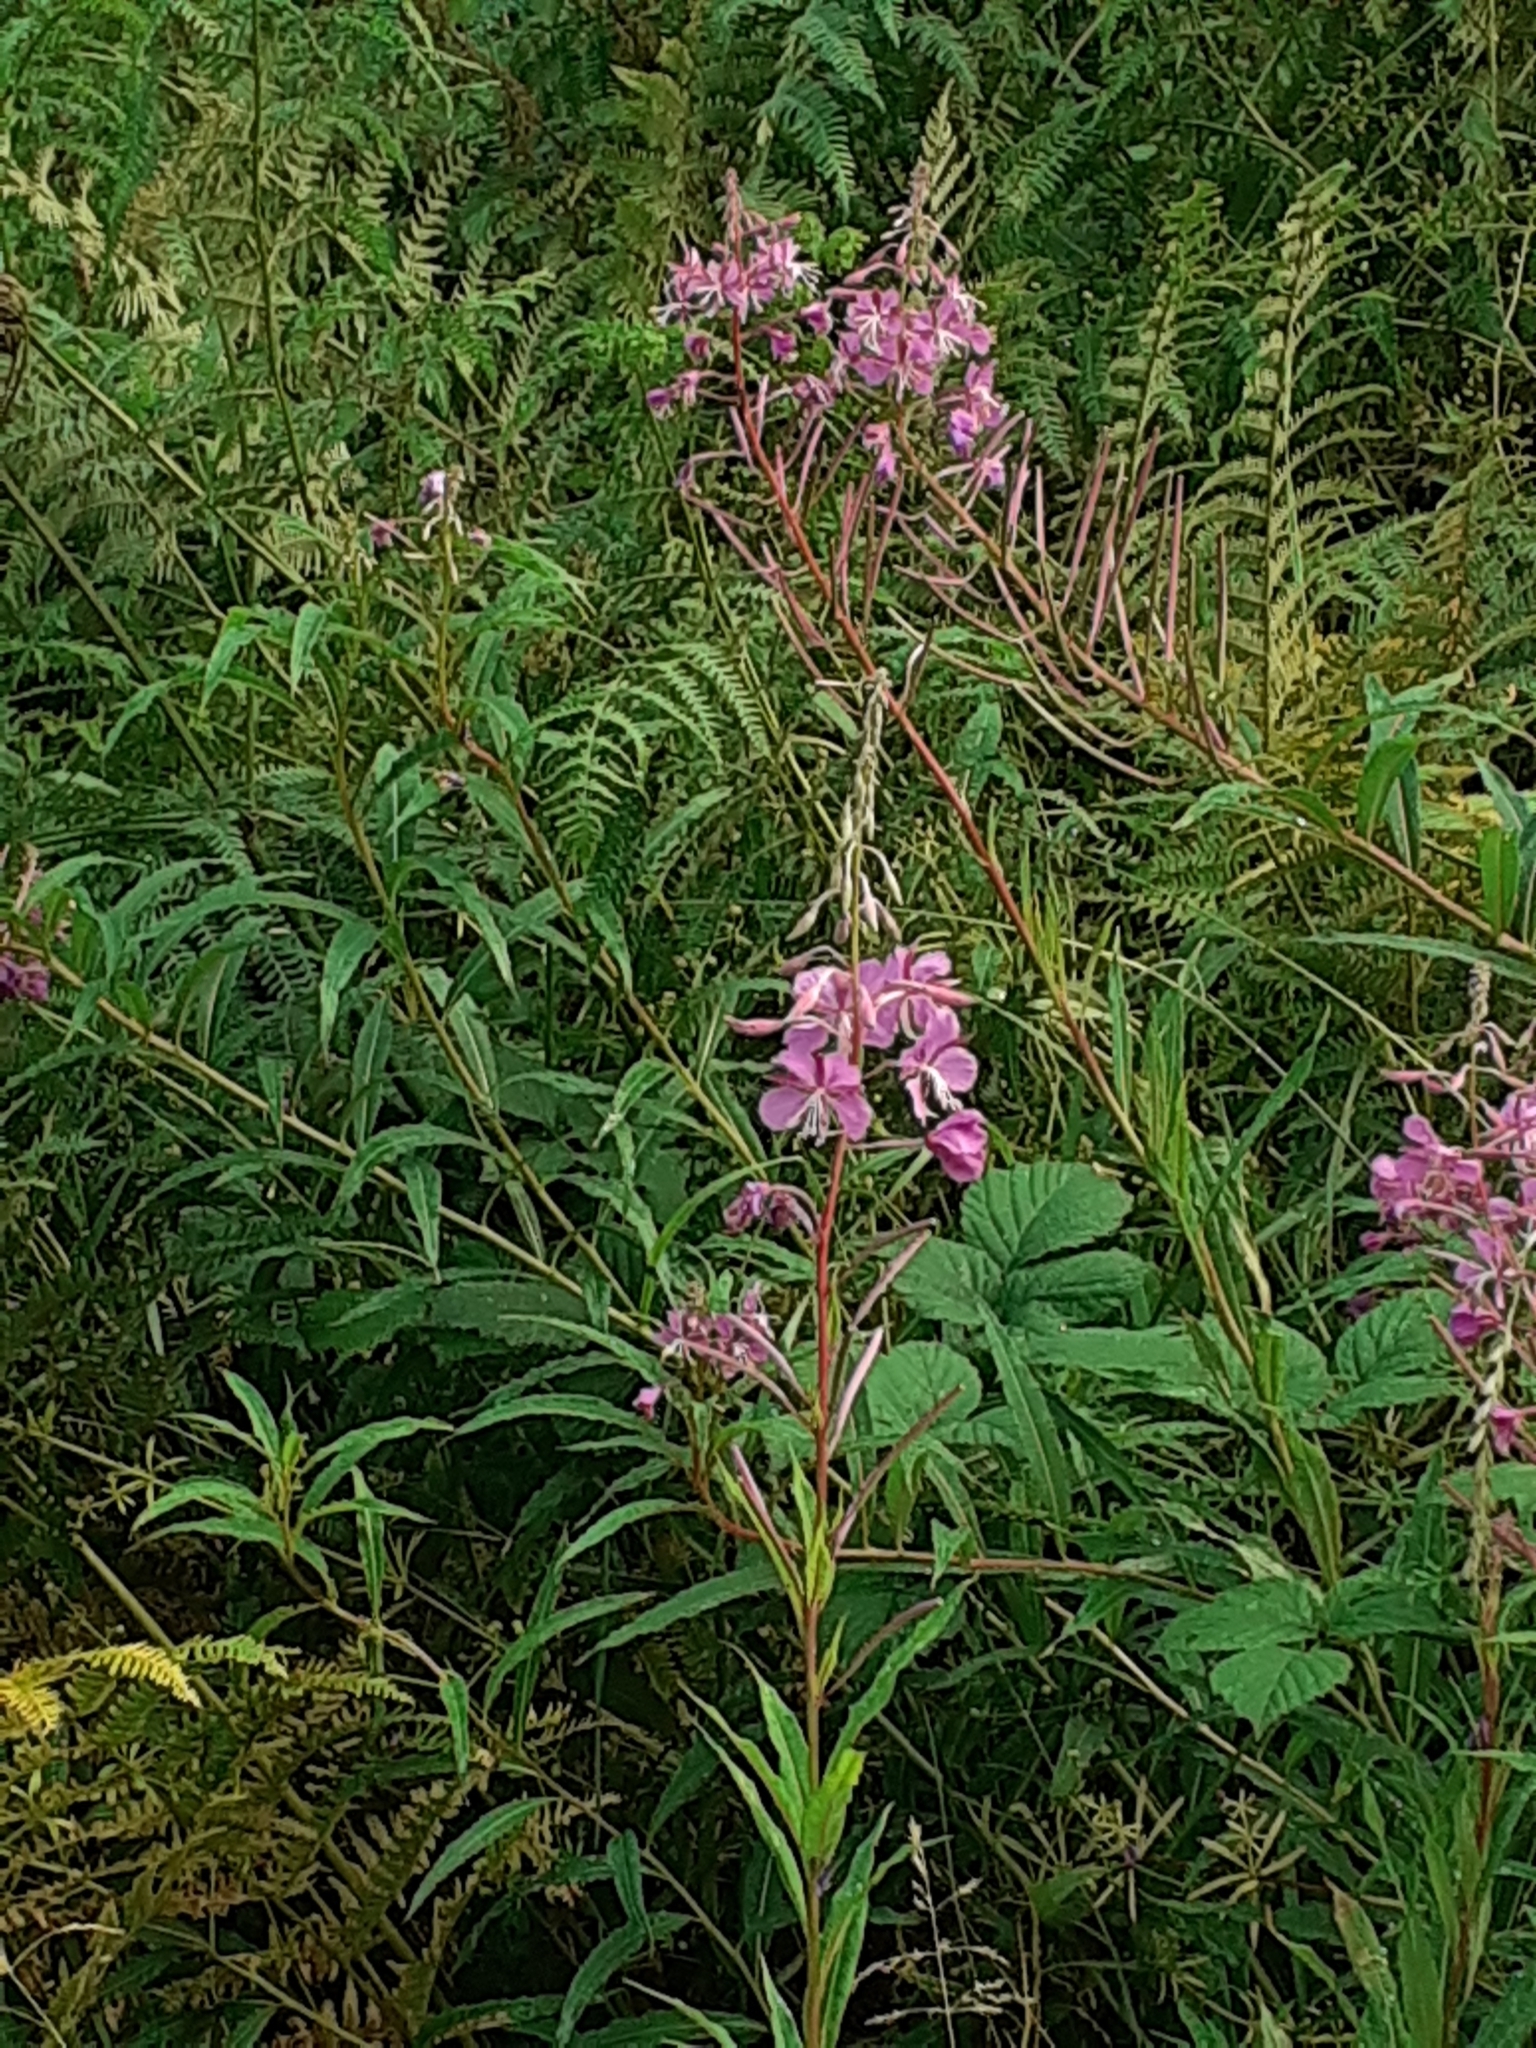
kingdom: Plantae
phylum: Tracheophyta
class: Magnoliopsida
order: Myrtales
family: Onagraceae
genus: Chamaenerion
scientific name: Chamaenerion angustifolium
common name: Fireweed
